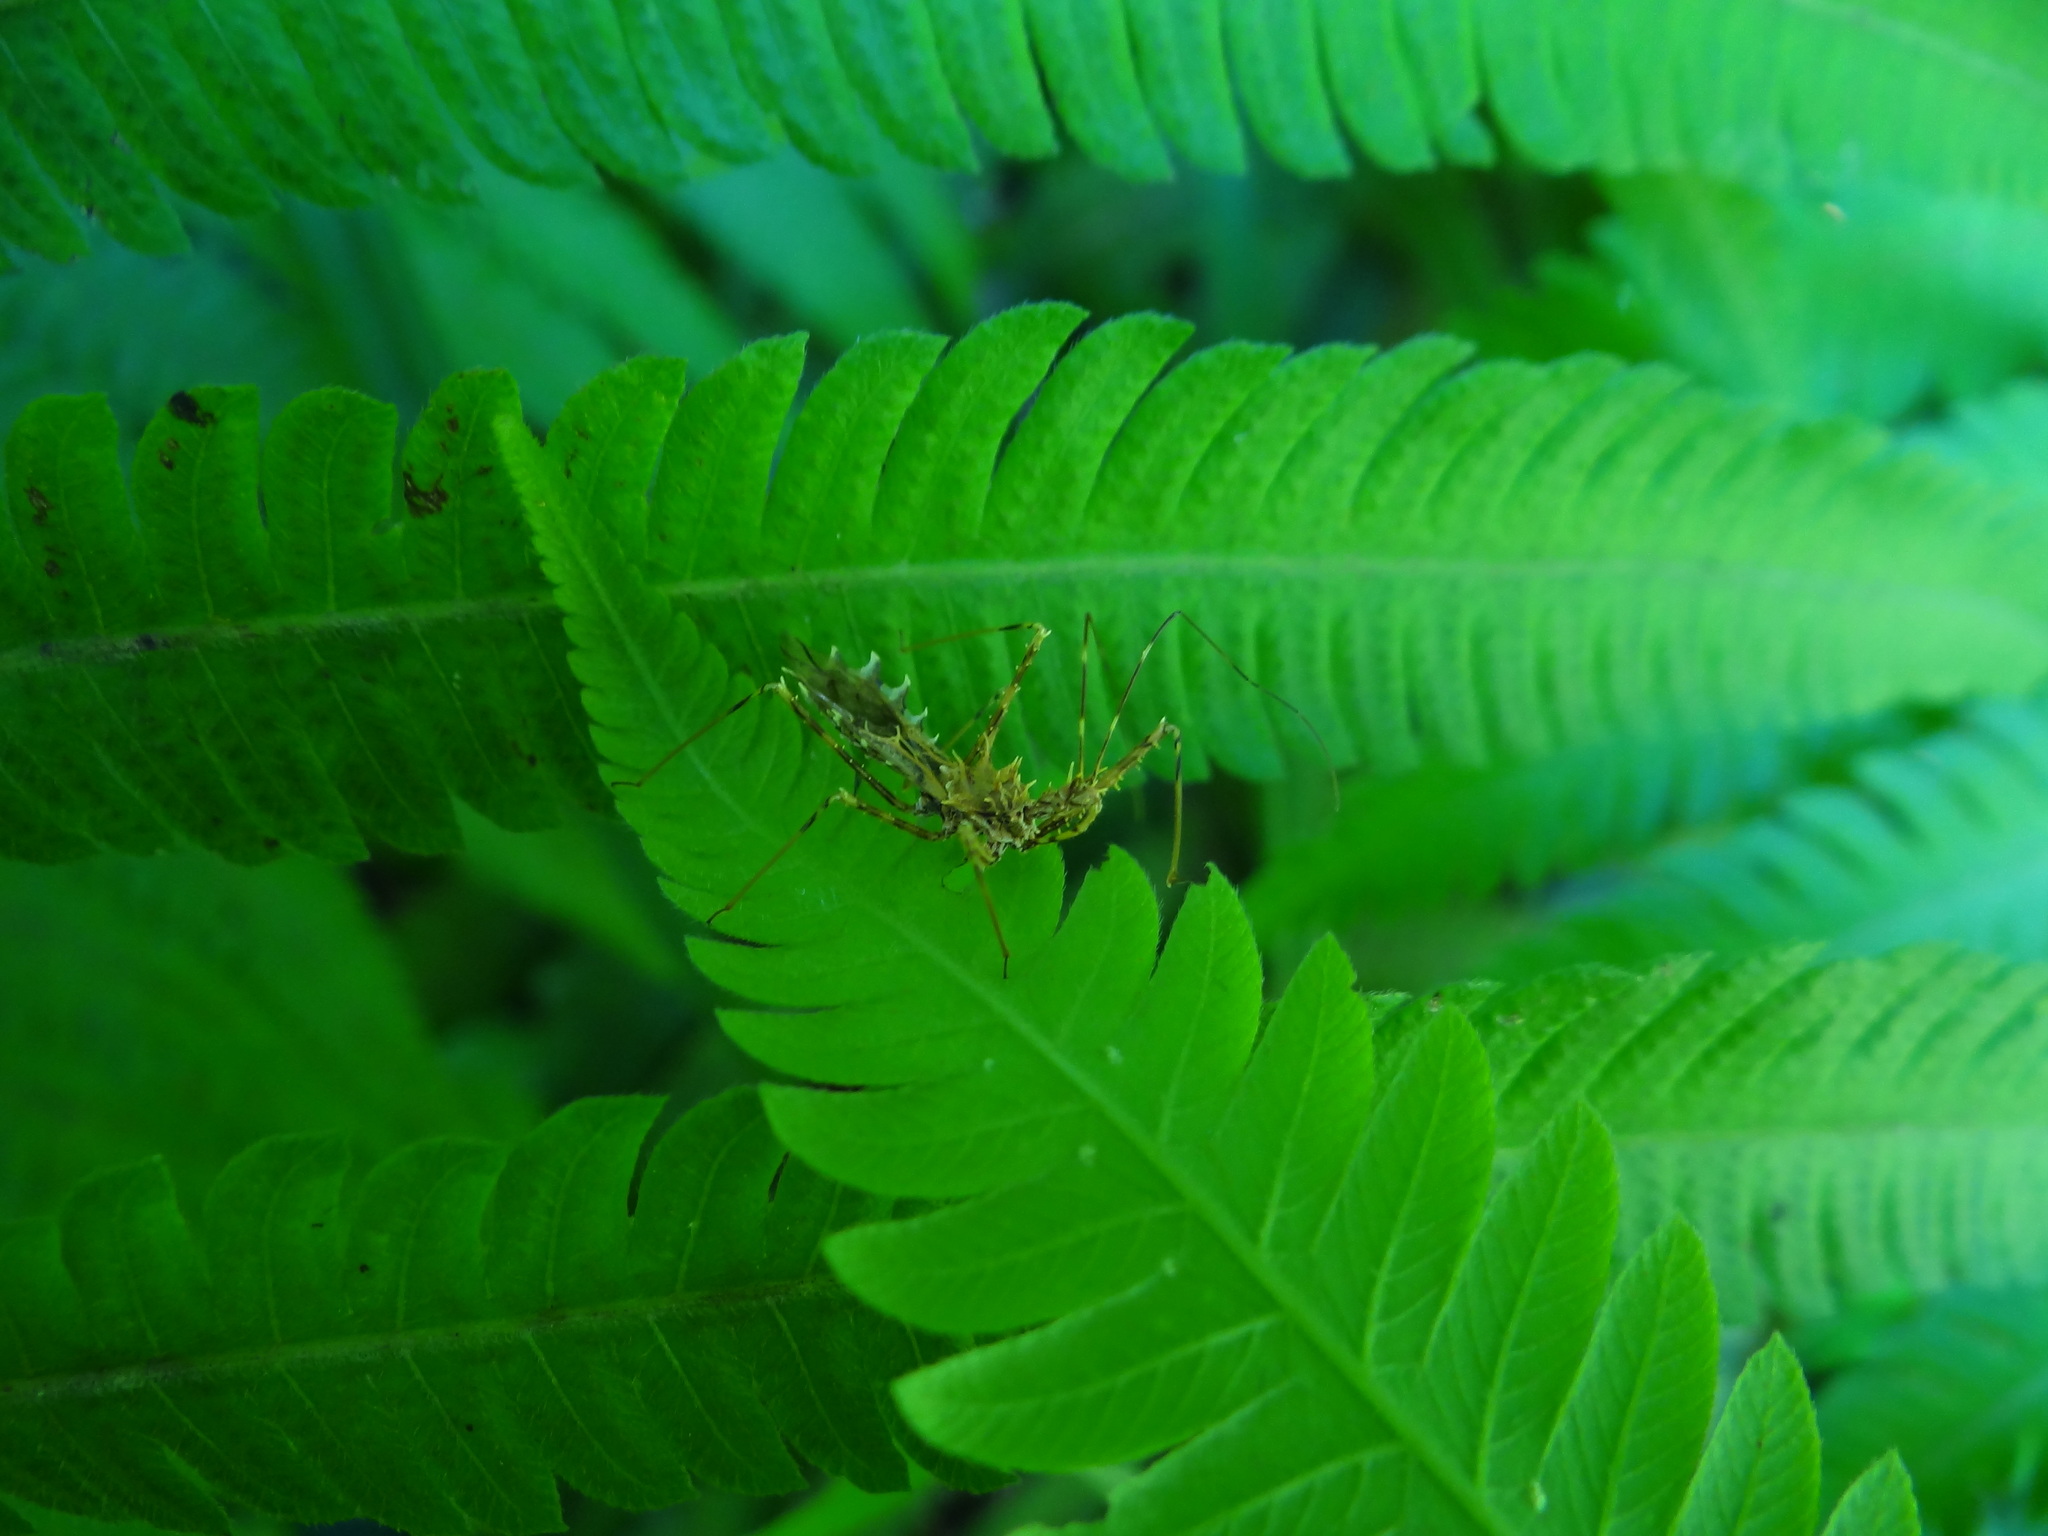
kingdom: Animalia
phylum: Arthropoda
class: Insecta
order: Hemiptera
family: Reduviidae
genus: Sclomina
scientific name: Sclomina erinacea
